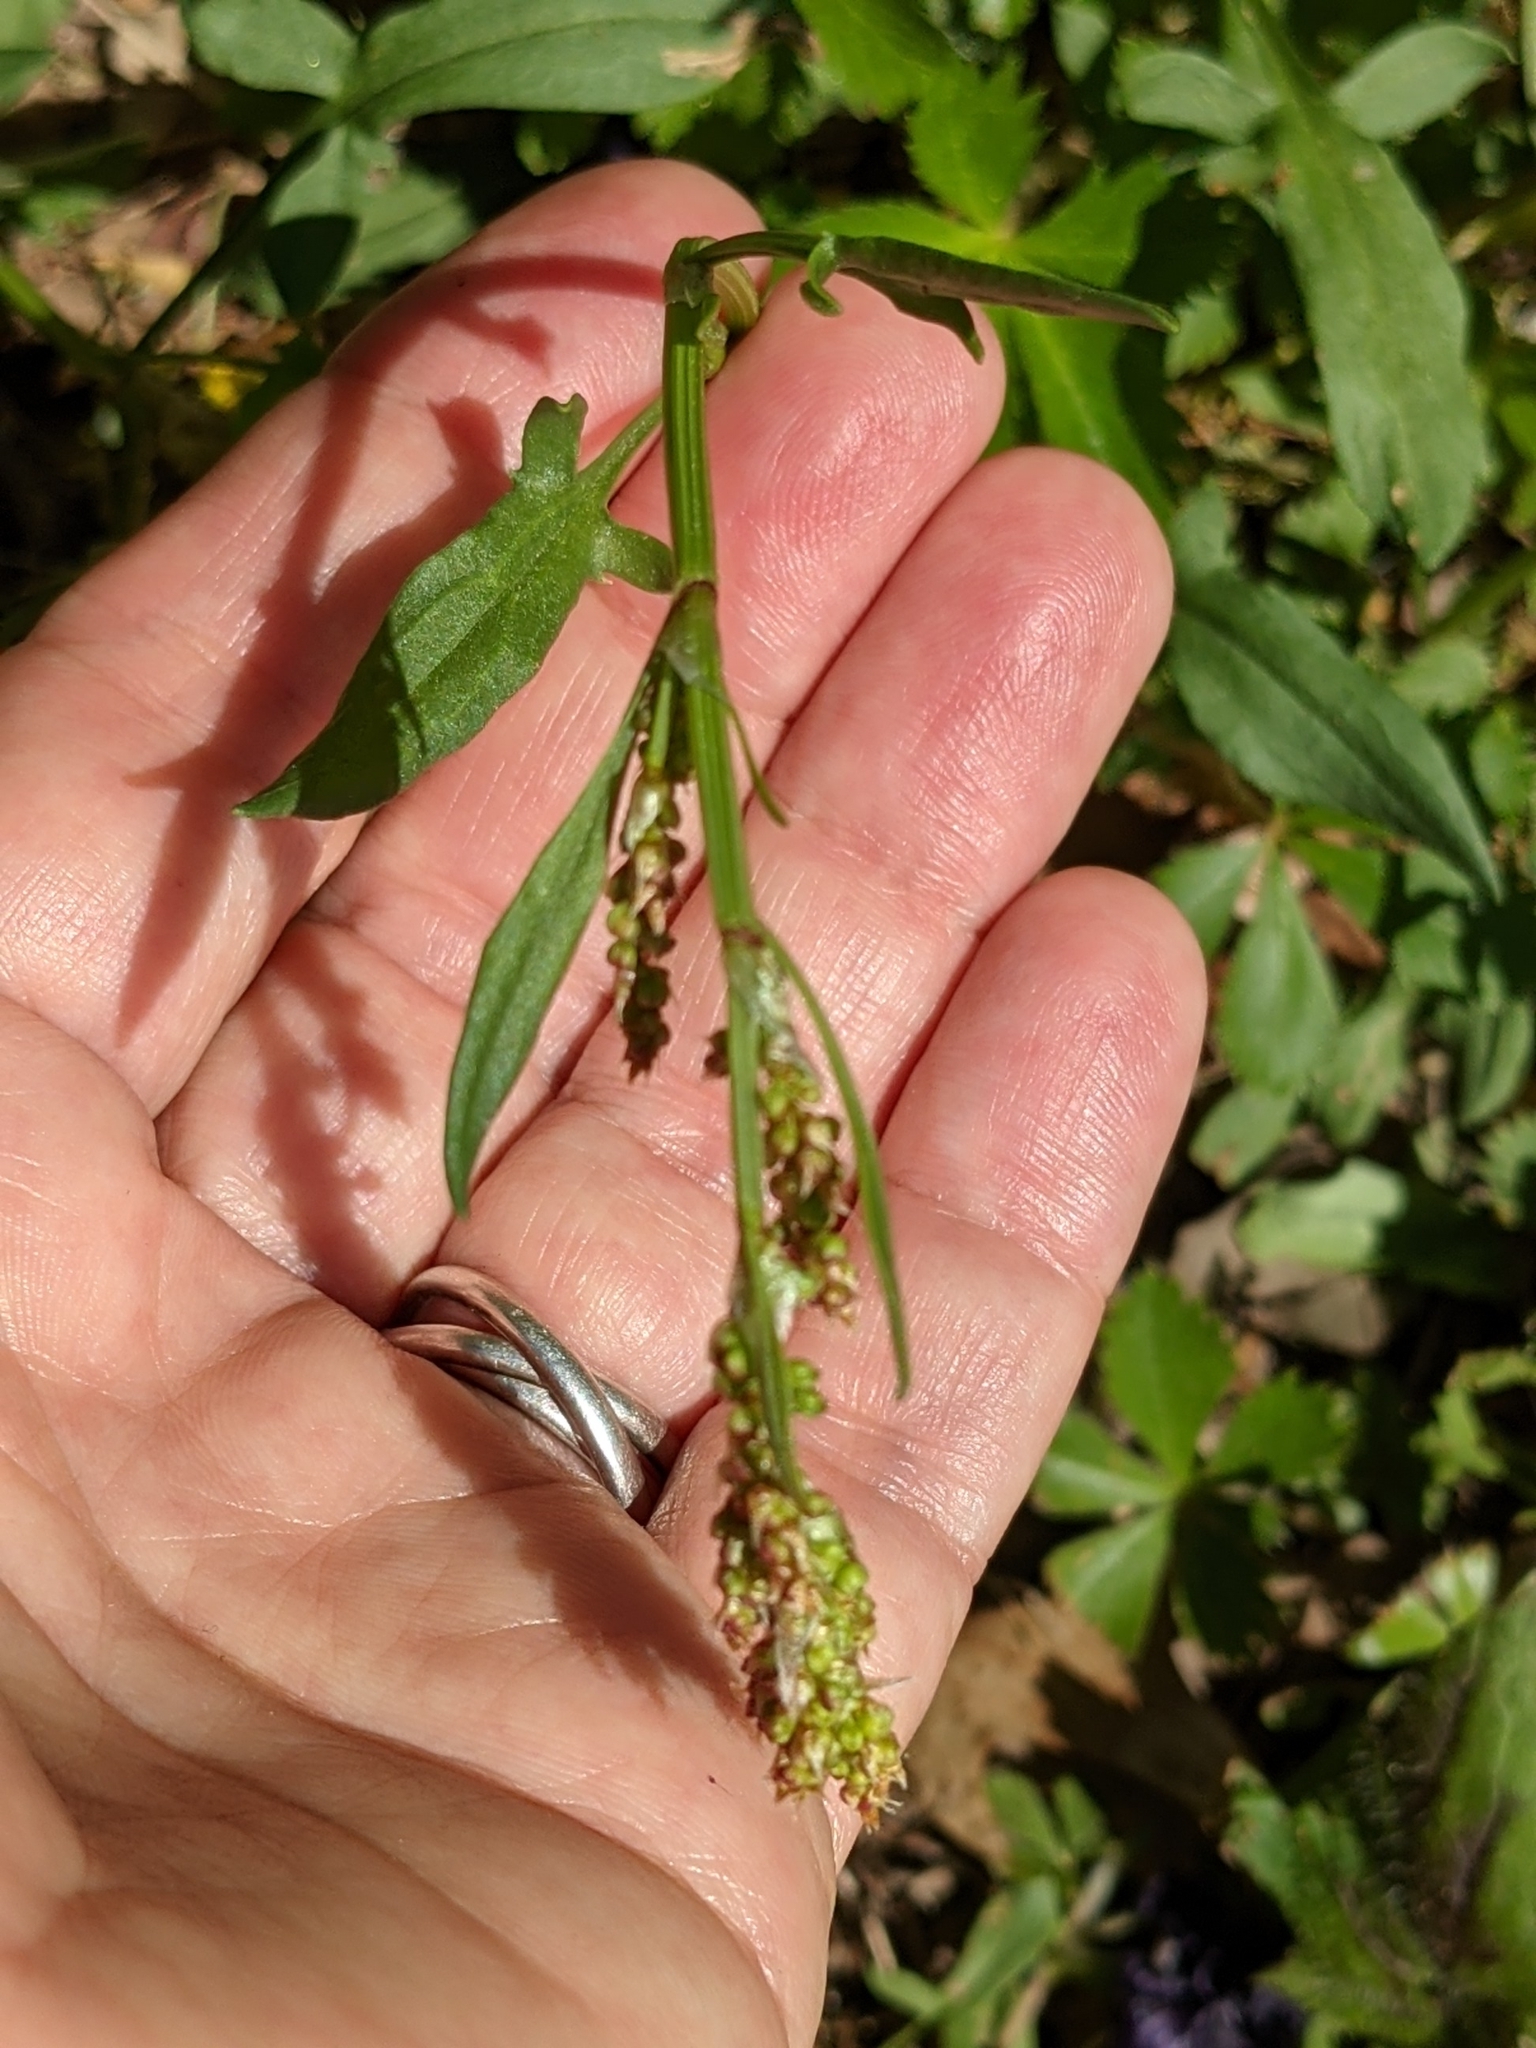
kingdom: Plantae
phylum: Tracheophyta
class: Magnoliopsida
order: Caryophyllales
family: Polygonaceae
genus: Rumex
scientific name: Rumex acetosella
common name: Common sheep sorrel
